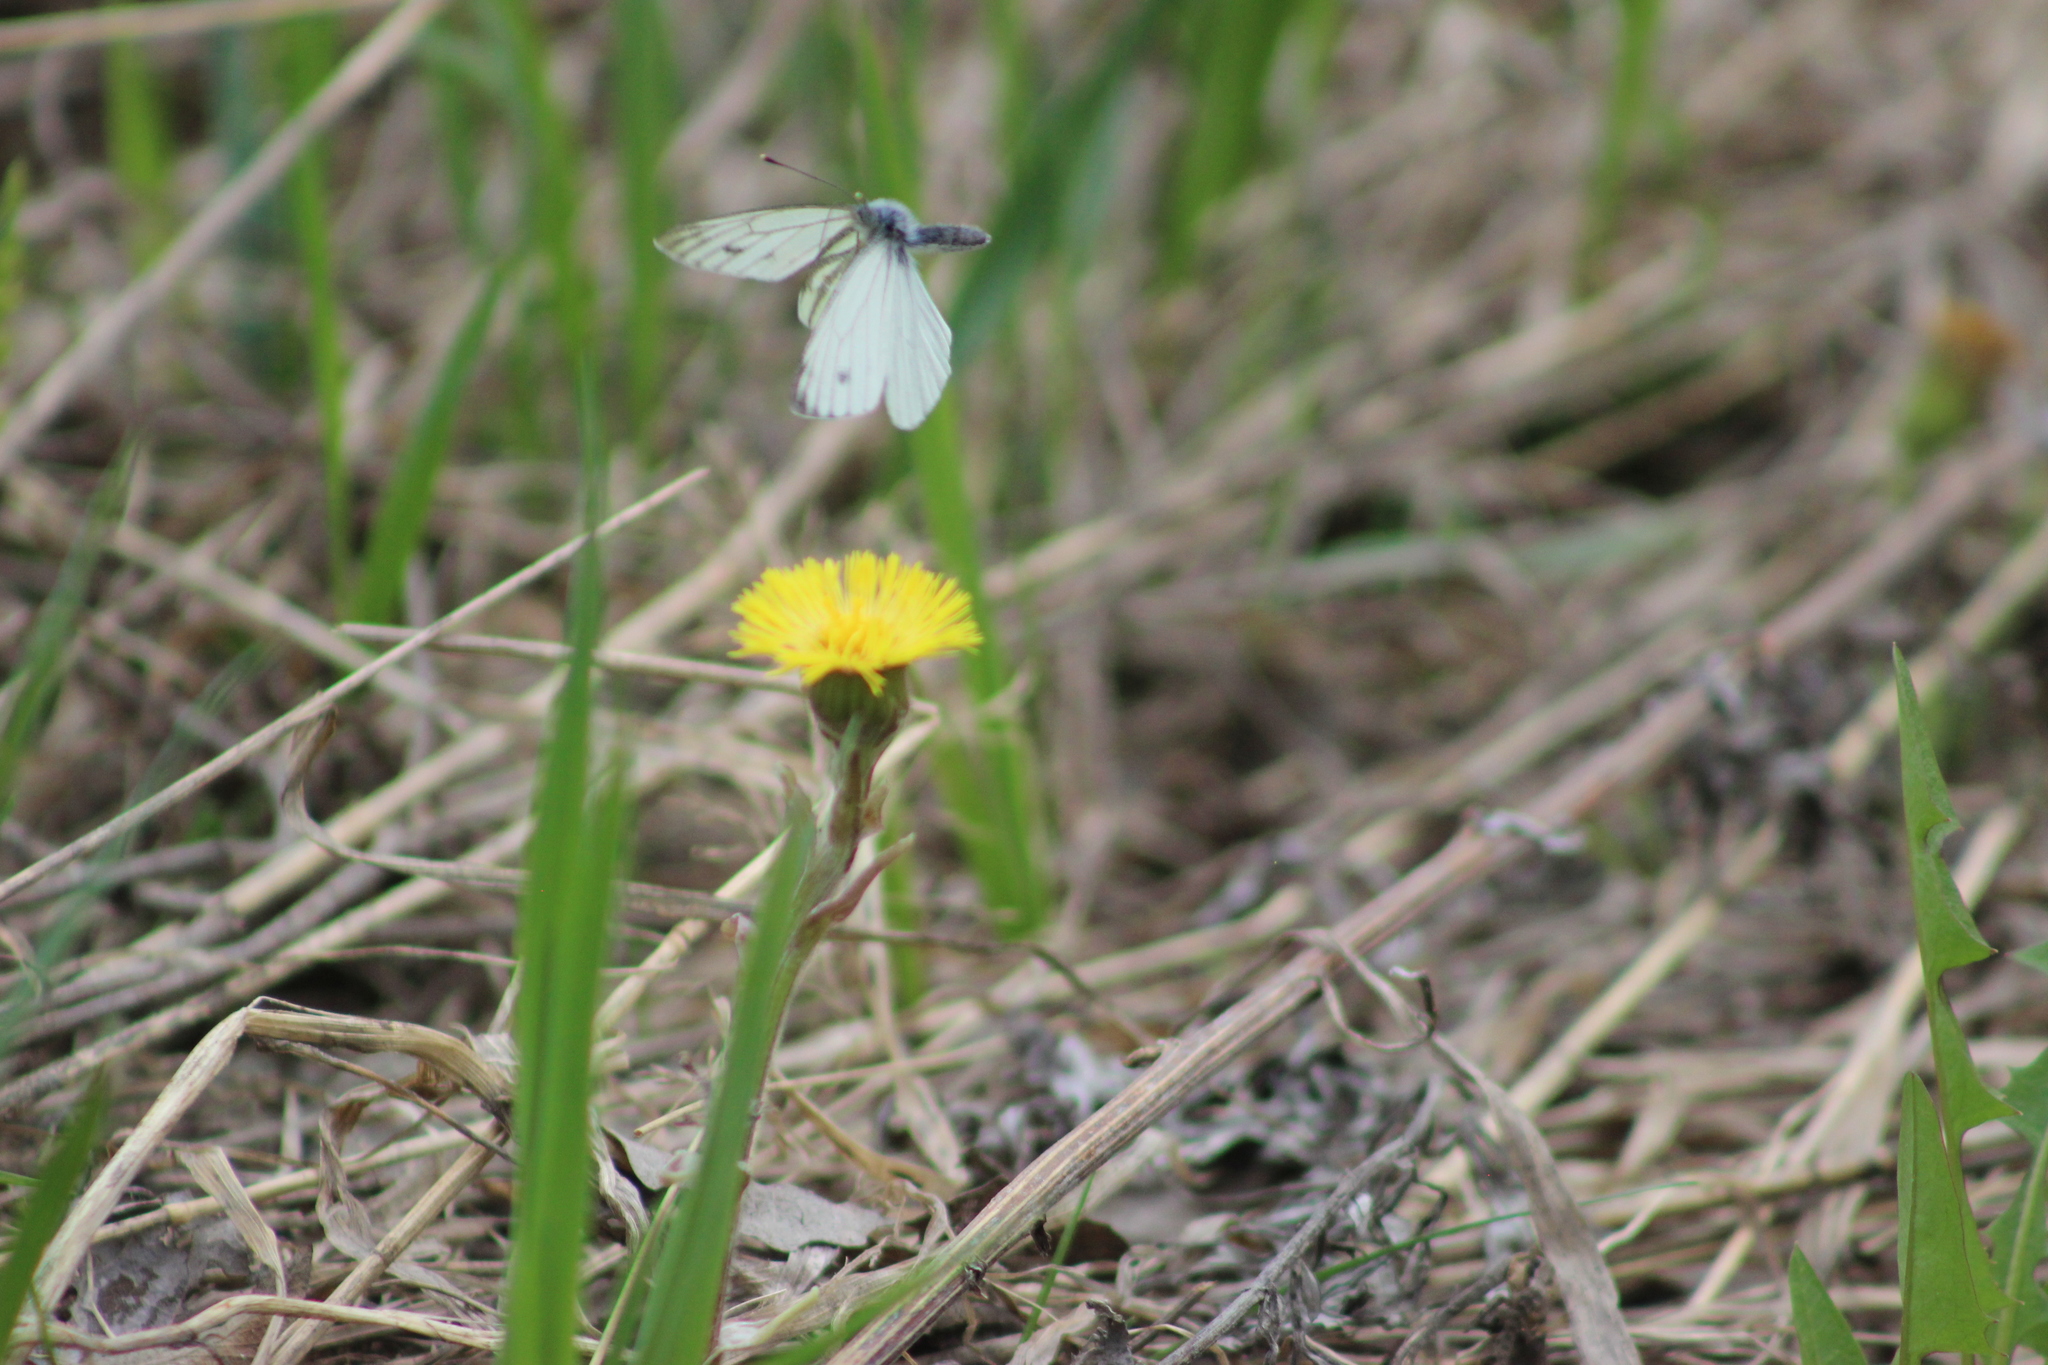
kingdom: Animalia
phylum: Arthropoda
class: Insecta
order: Lepidoptera
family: Pieridae
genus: Pieris
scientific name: Pieris napi
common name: Green-veined white
